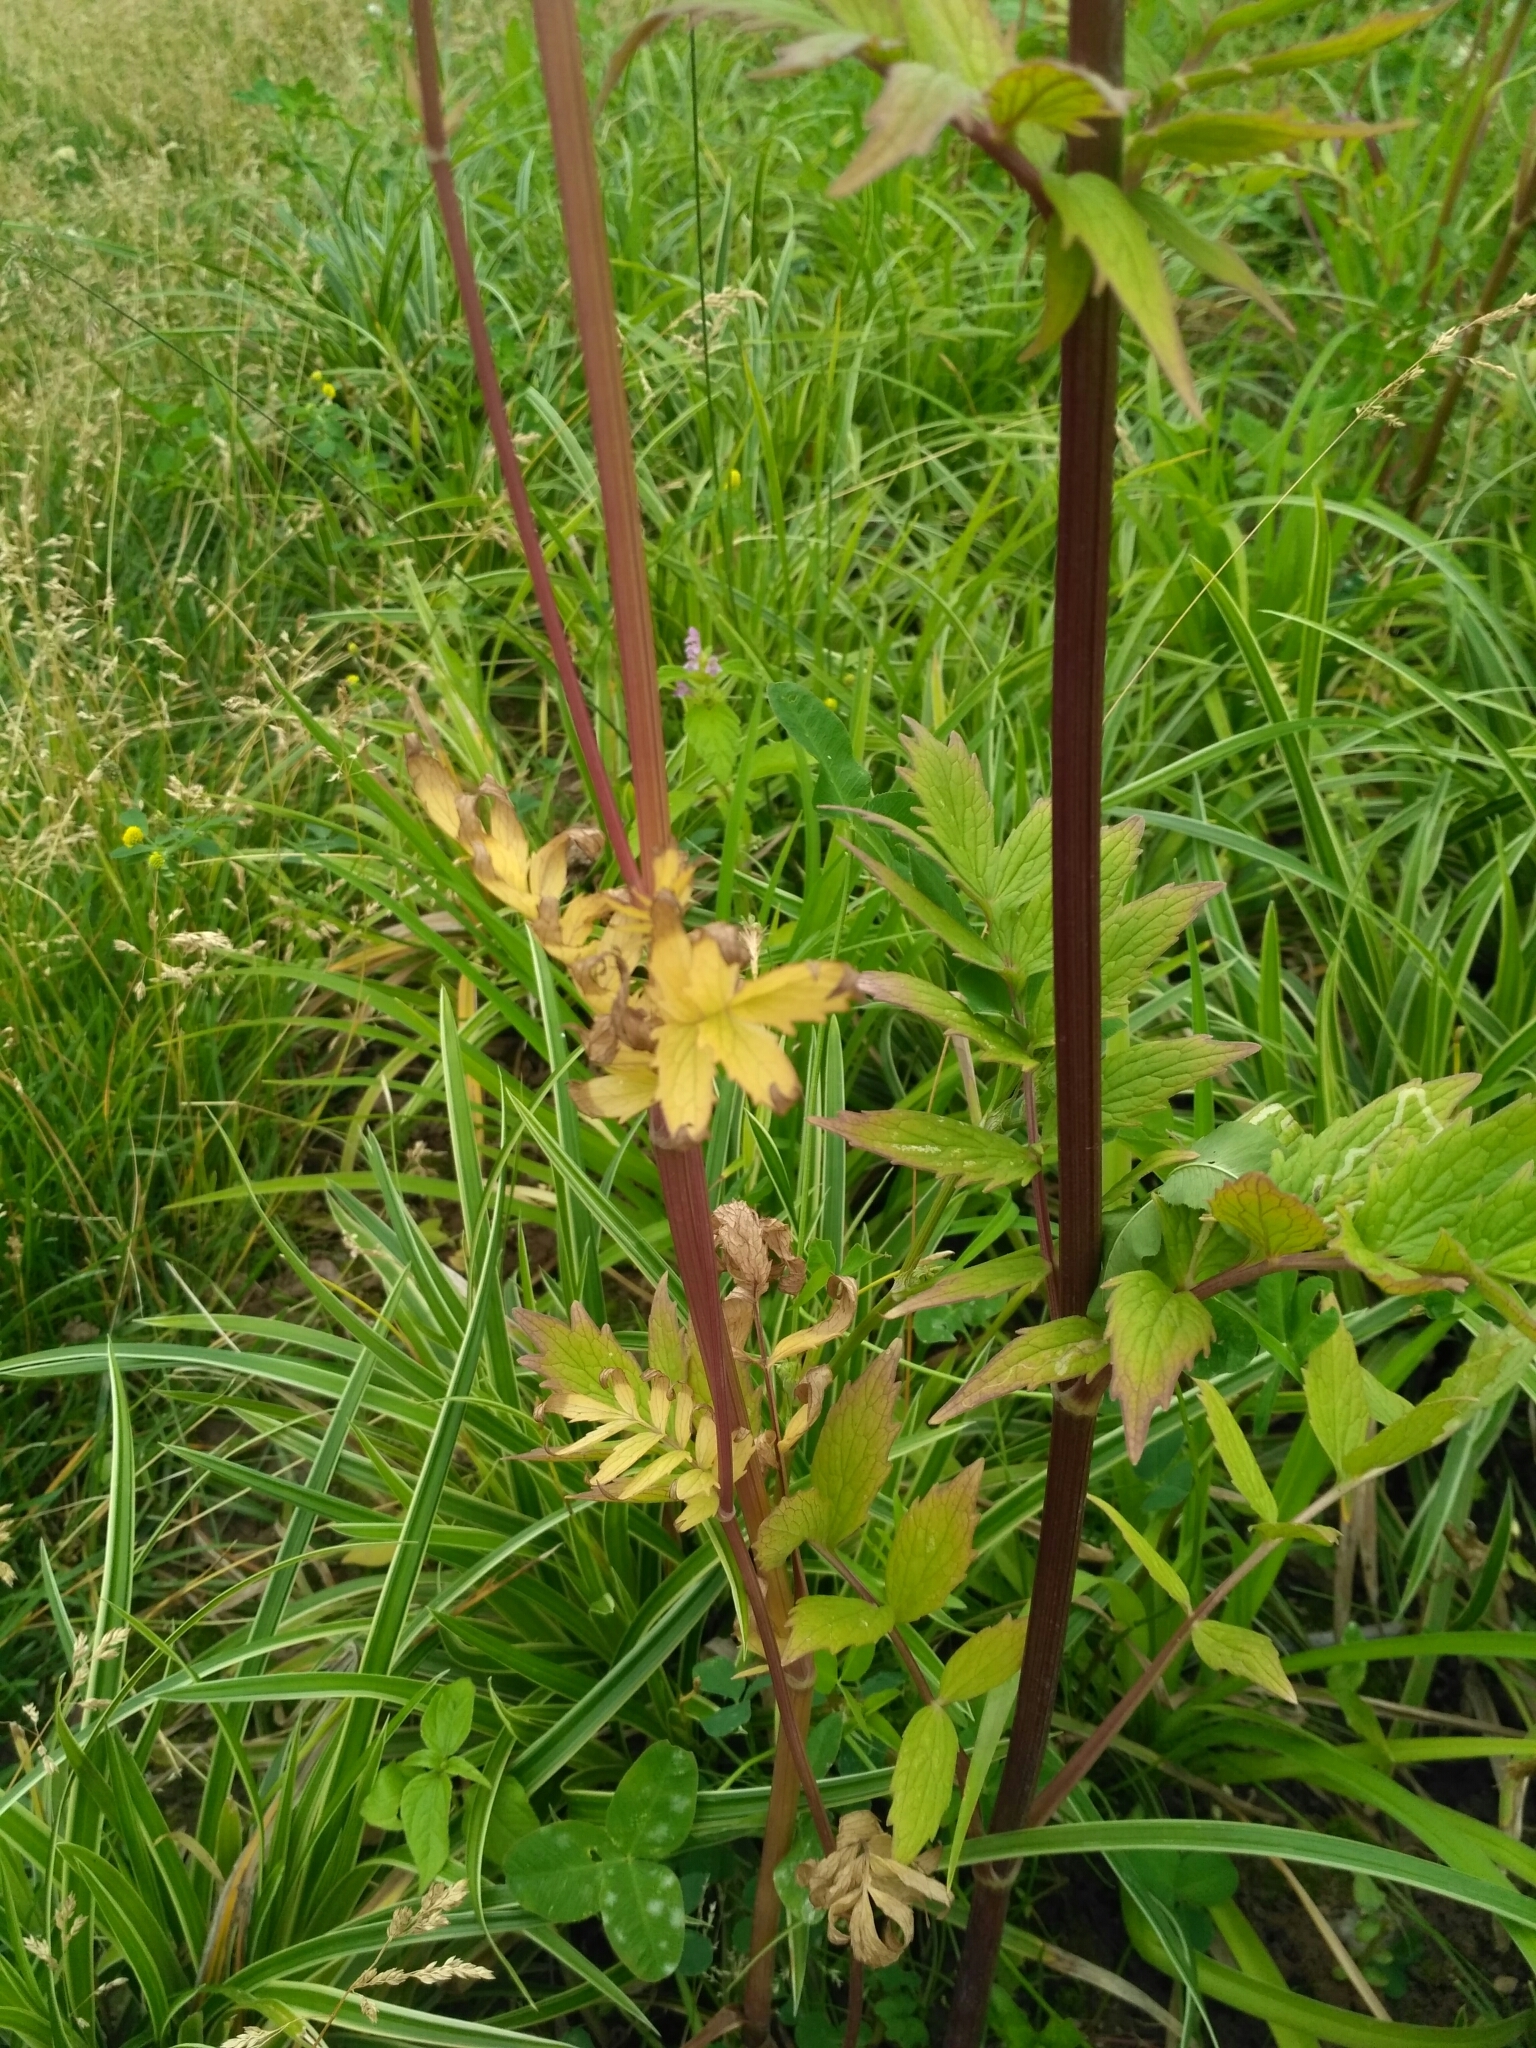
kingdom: Plantae
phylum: Tracheophyta
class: Magnoliopsida
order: Dipsacales
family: Caprifoliaceae
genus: Valeriana
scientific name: Valeriana officinalis
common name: Common valerian
